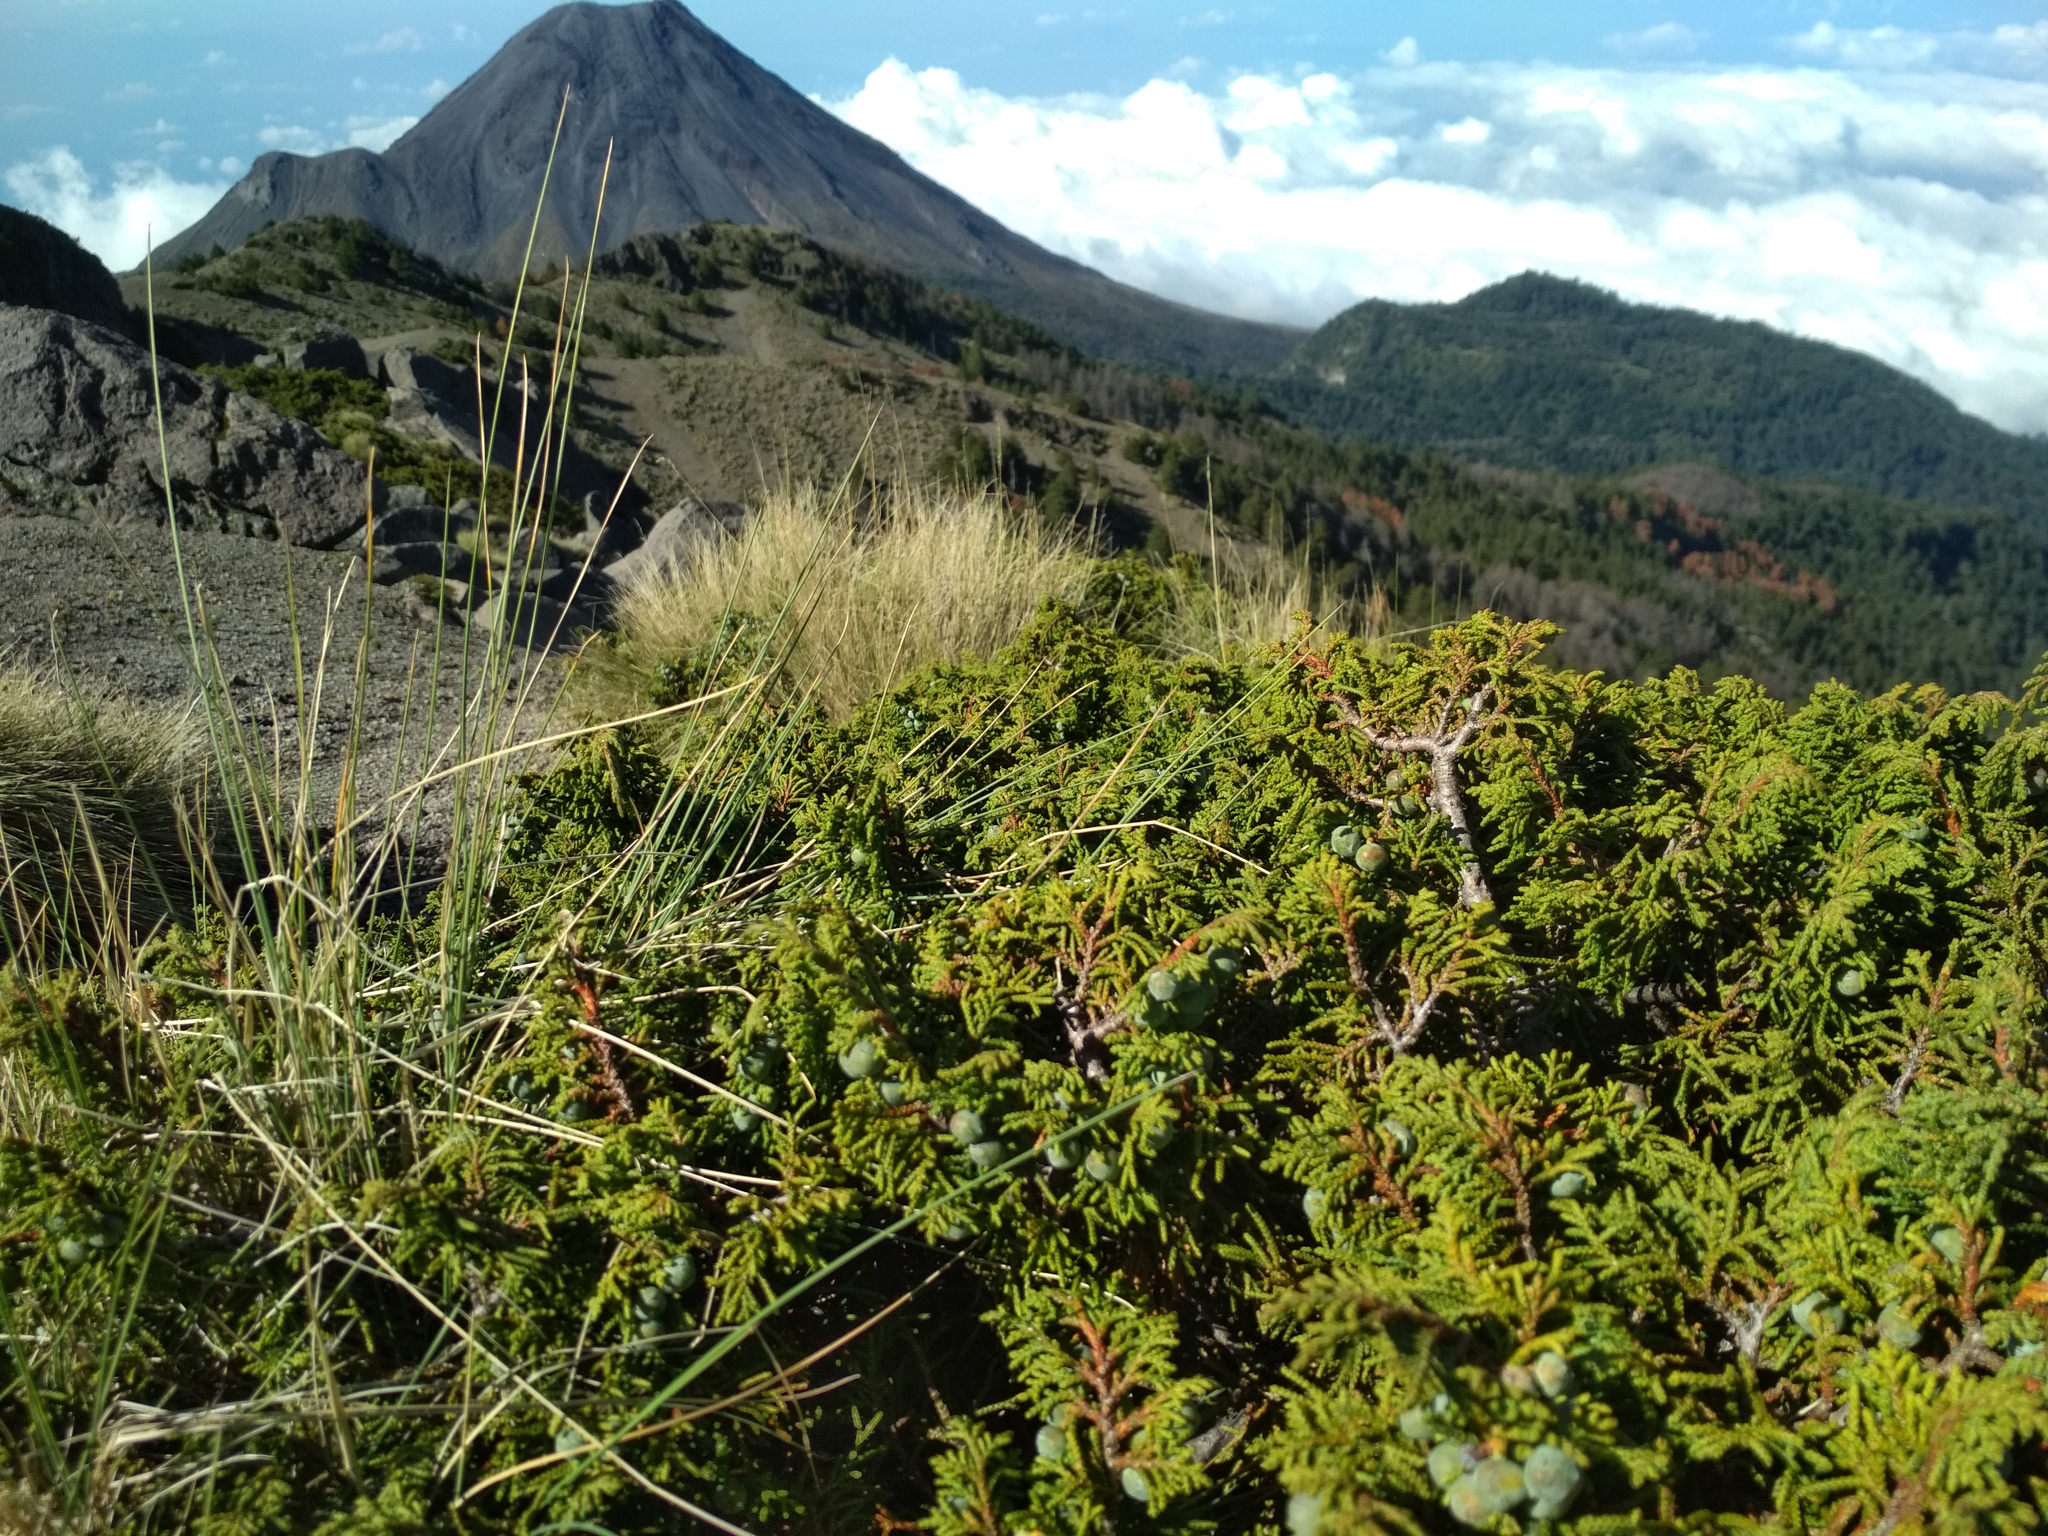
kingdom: Plantae
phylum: Tracheophyta
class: Pinopsida
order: Pinales
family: Cupressaceae
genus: Juniperus
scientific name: Juniperus monticola
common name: Mexican juniper
